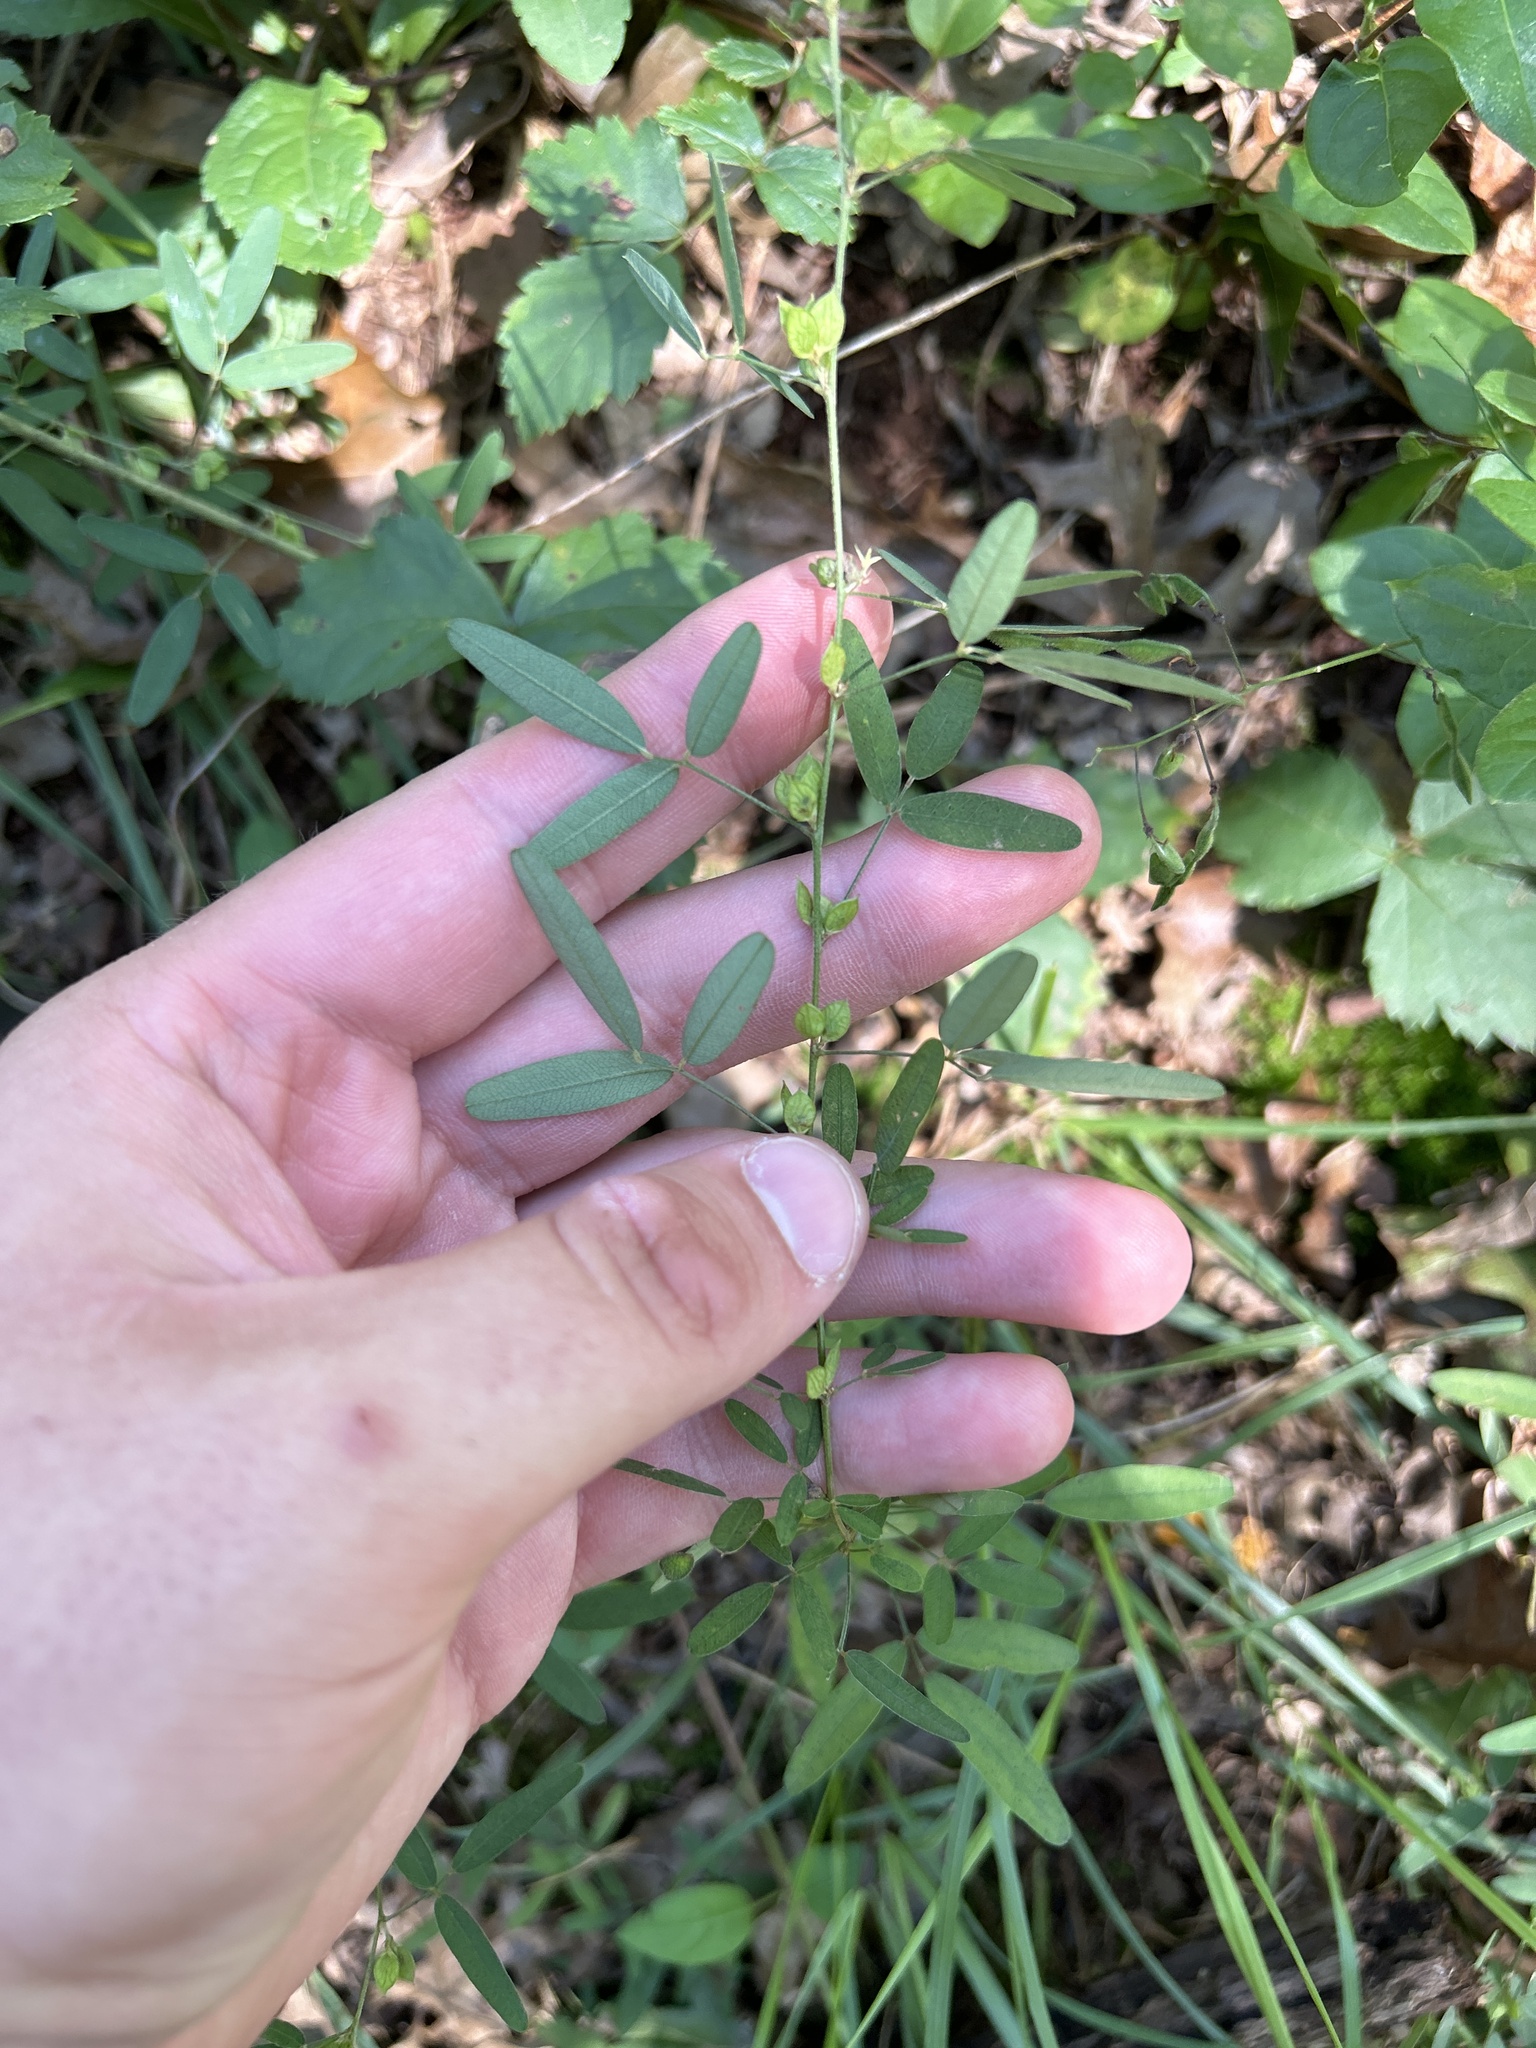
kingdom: Plantae
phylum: Tracheophyta
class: Magnoliopsida
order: Fabales
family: Fabaceae
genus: Lespedeza
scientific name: Lespedeza virginica
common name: Slender bush-clover
